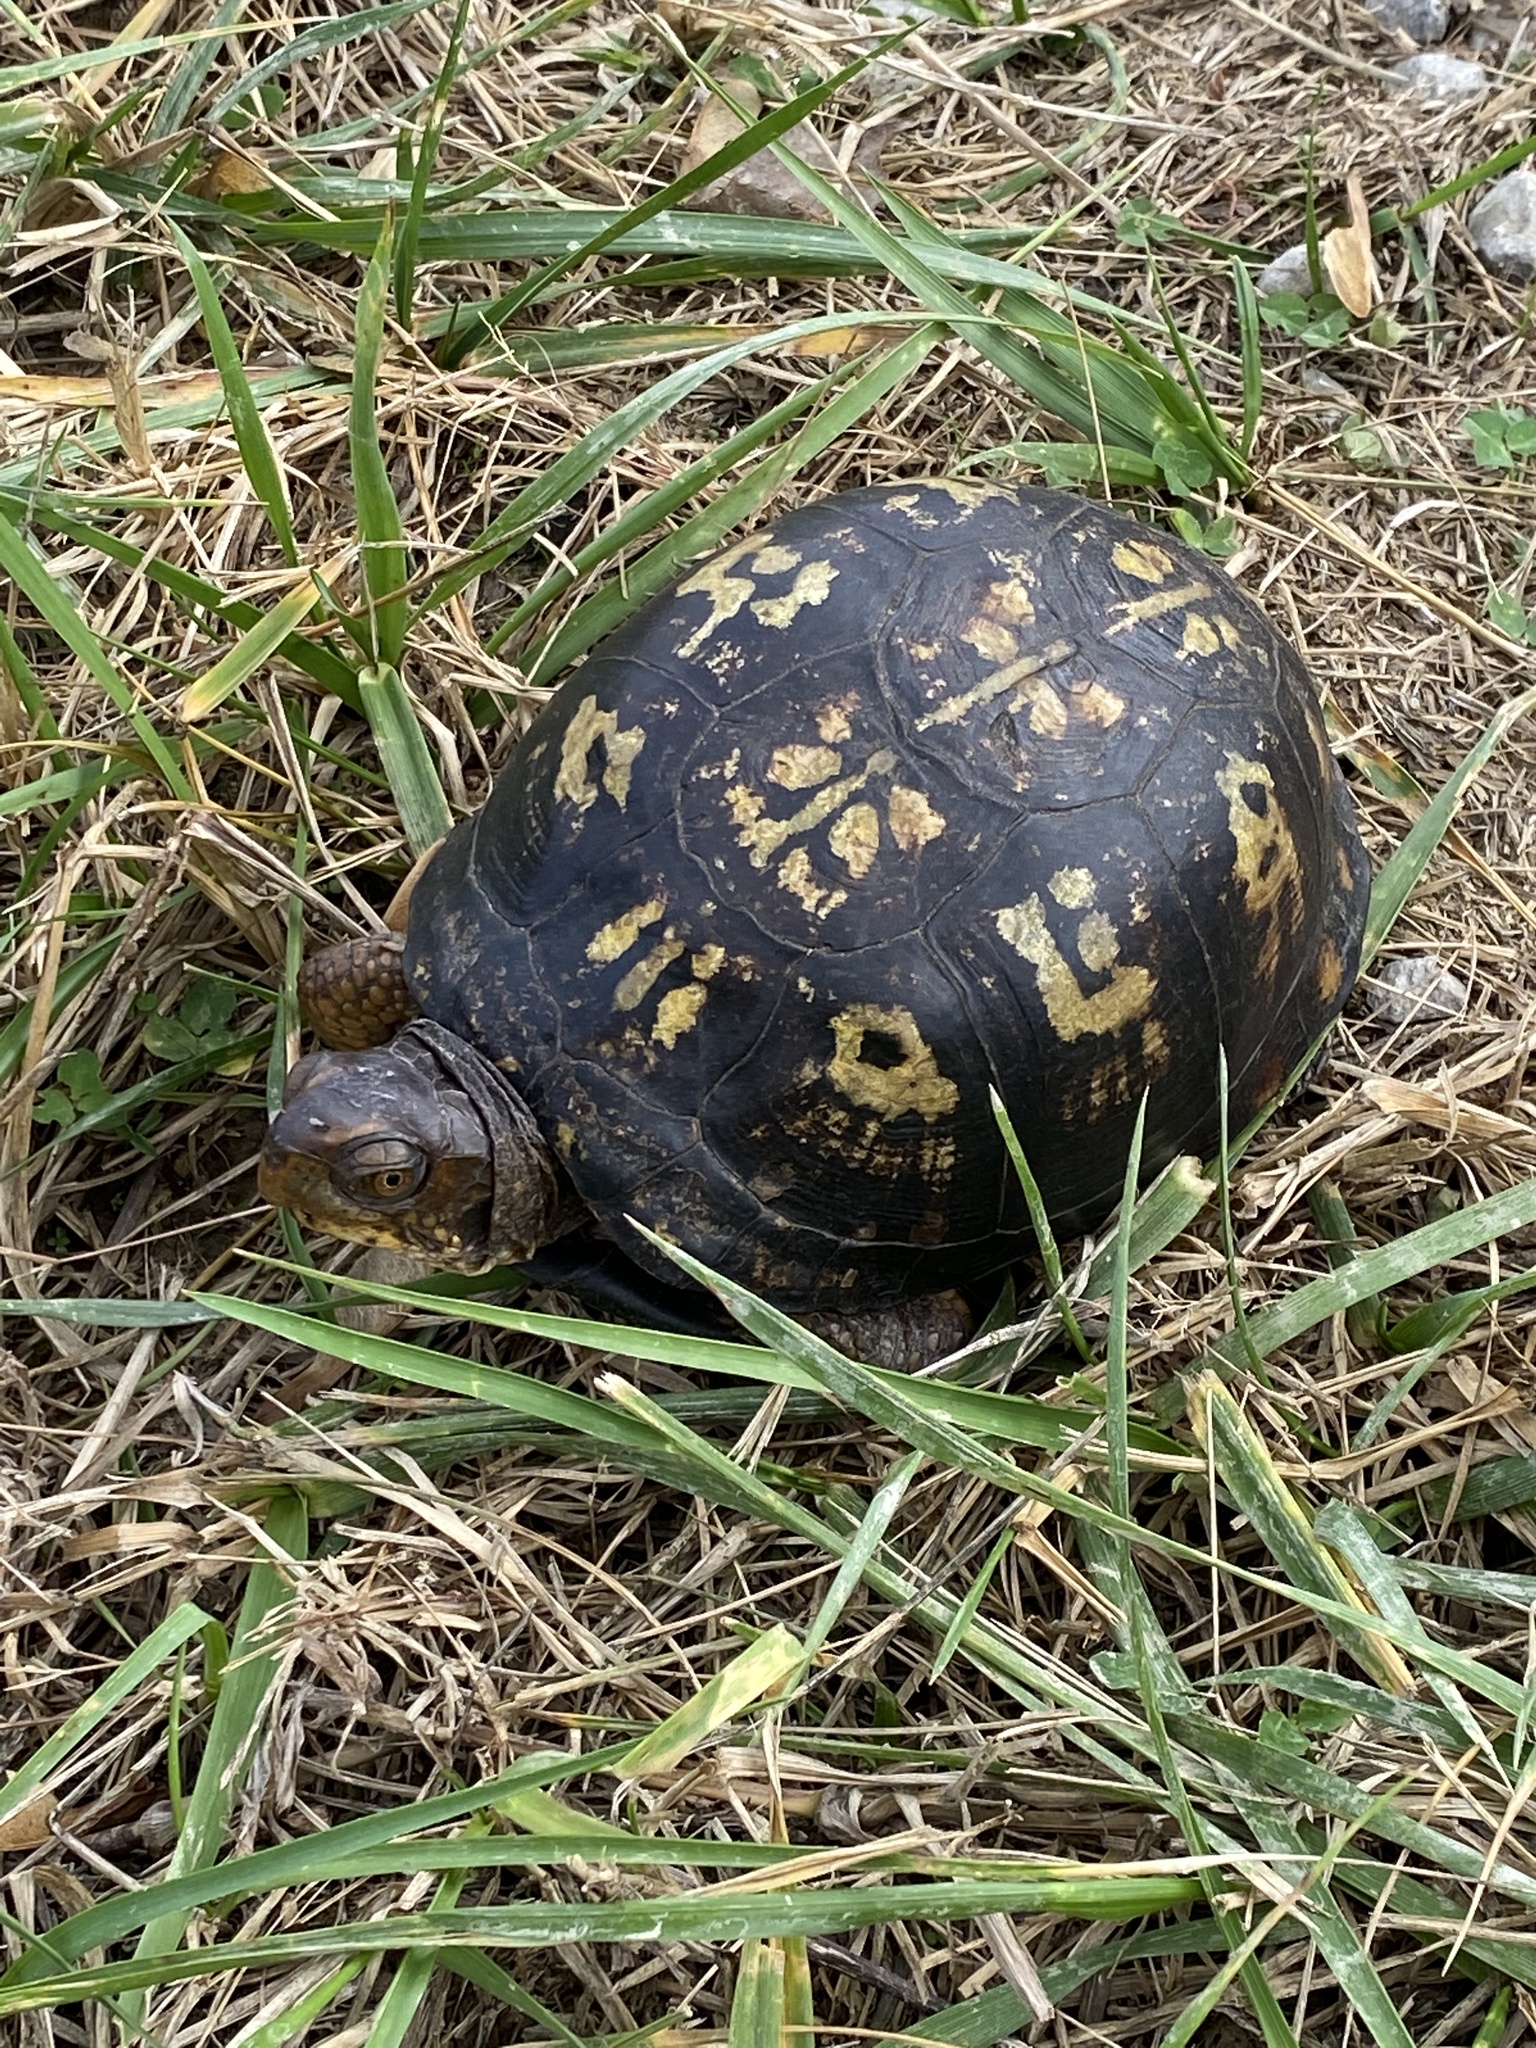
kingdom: Animalia
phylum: Chordata
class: Testudines
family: Emydidae
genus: Terrapene
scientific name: Terrapene carolina
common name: Common box turtle
